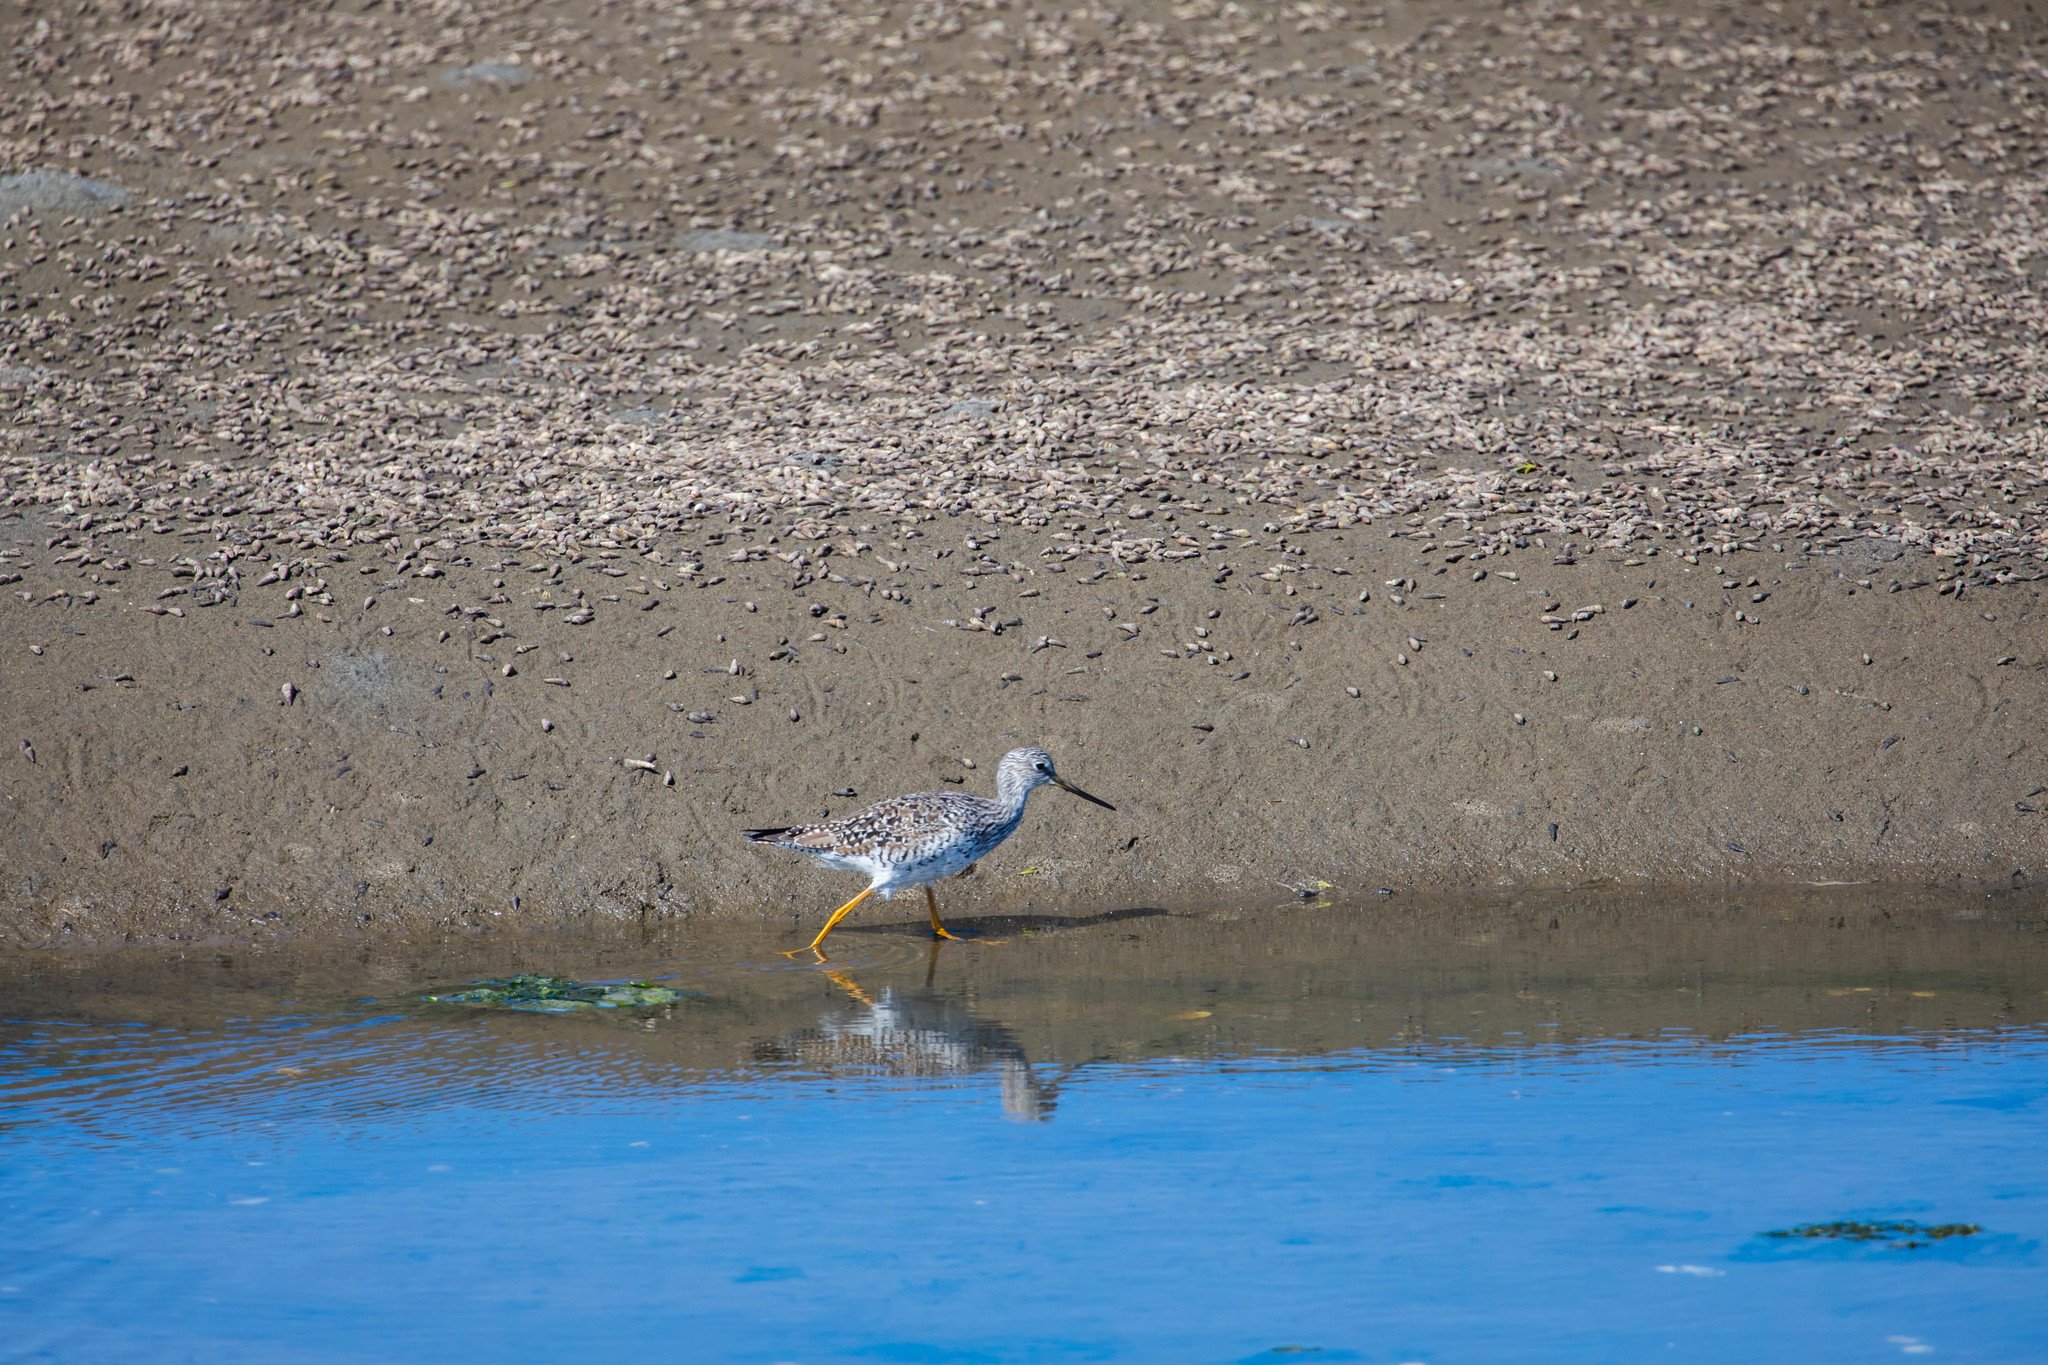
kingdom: Animalia
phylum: Chordata
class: Aves
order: Charadriiformes
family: Scolopacidae
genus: Tringa
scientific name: Tringa melanoleuca
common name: Greater yellowlegs
